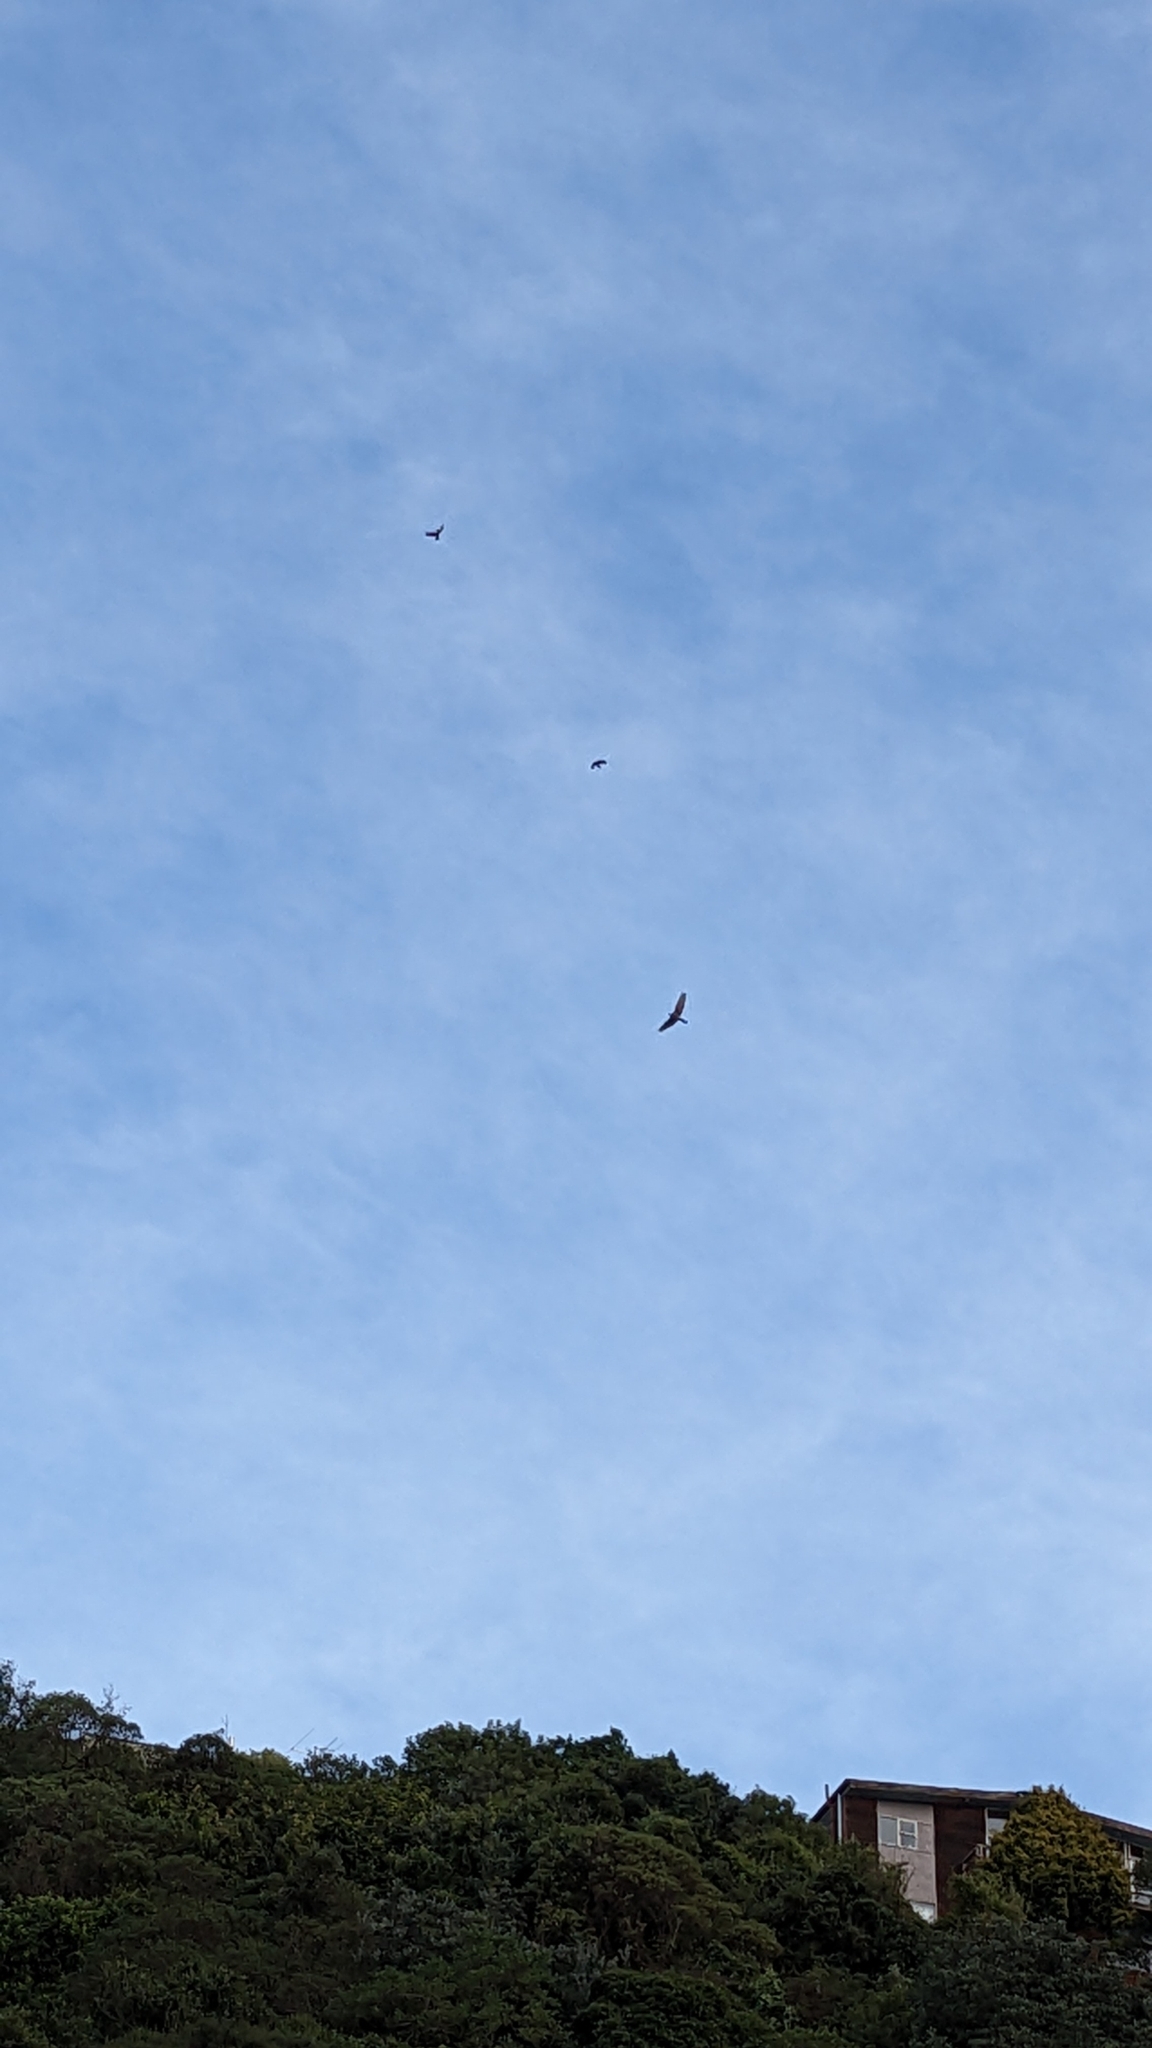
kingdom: Animalia
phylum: Chordata
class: Aves
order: Accipitriformes
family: Accipitridae
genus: Circus
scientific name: Circus approximans
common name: Swamp harrier
